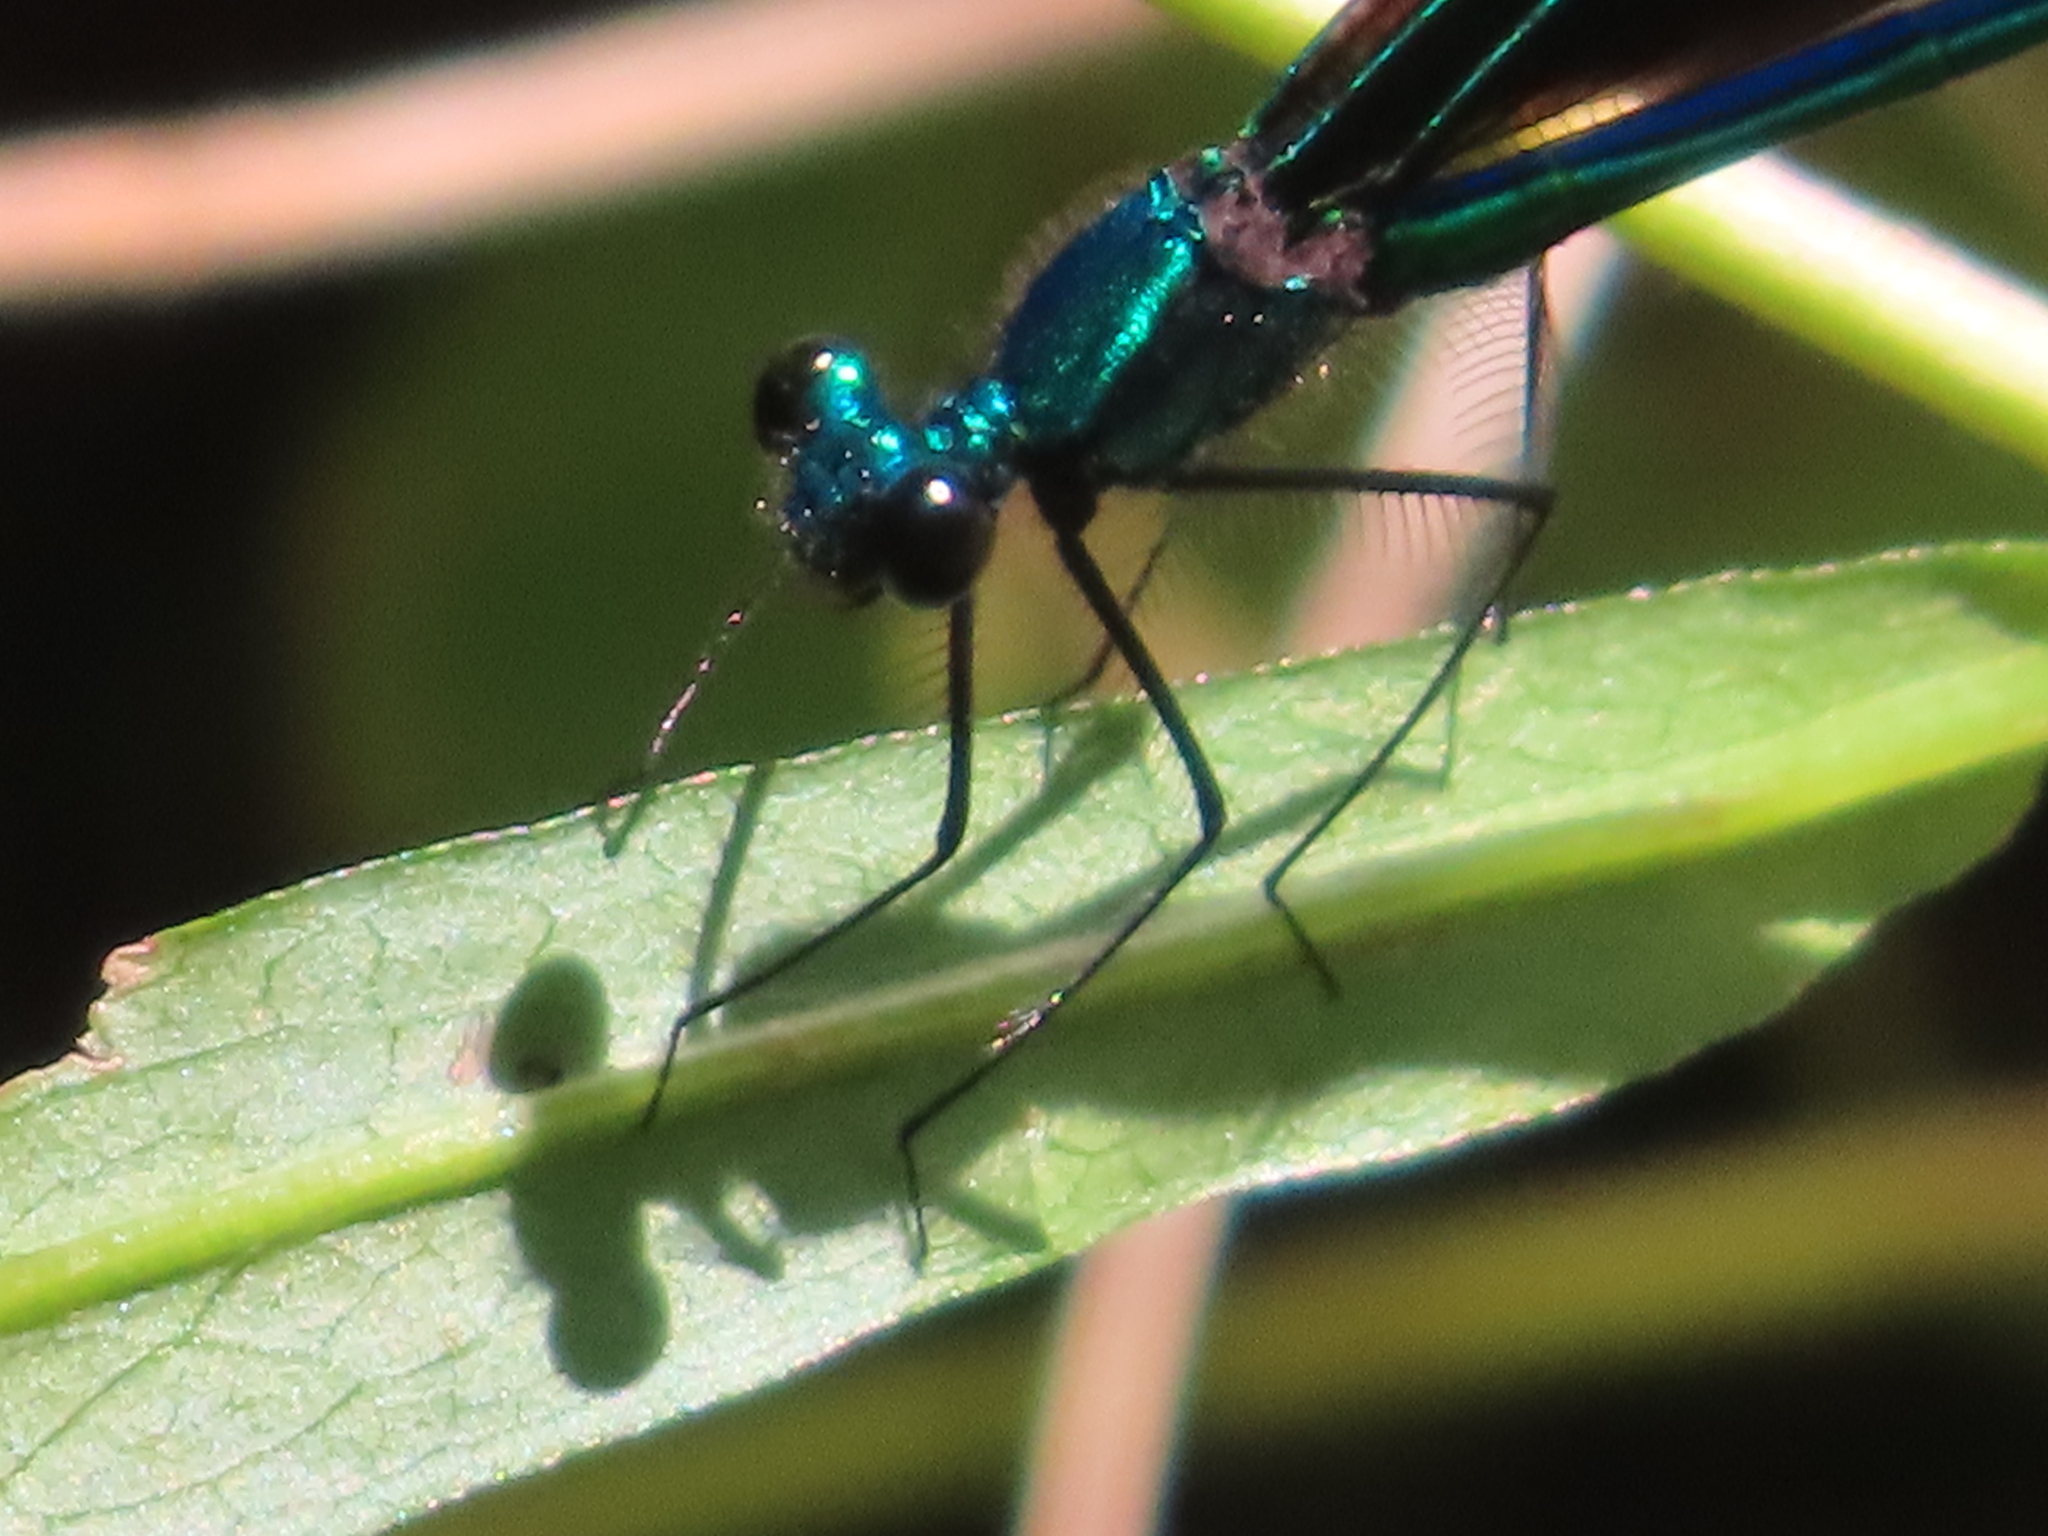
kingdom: Animalia
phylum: Arthropoda
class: Insecta
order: Odonata
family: Calopterygidae
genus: Calopteryx
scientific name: Calopteryx maculata
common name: Ebony jewelwing
